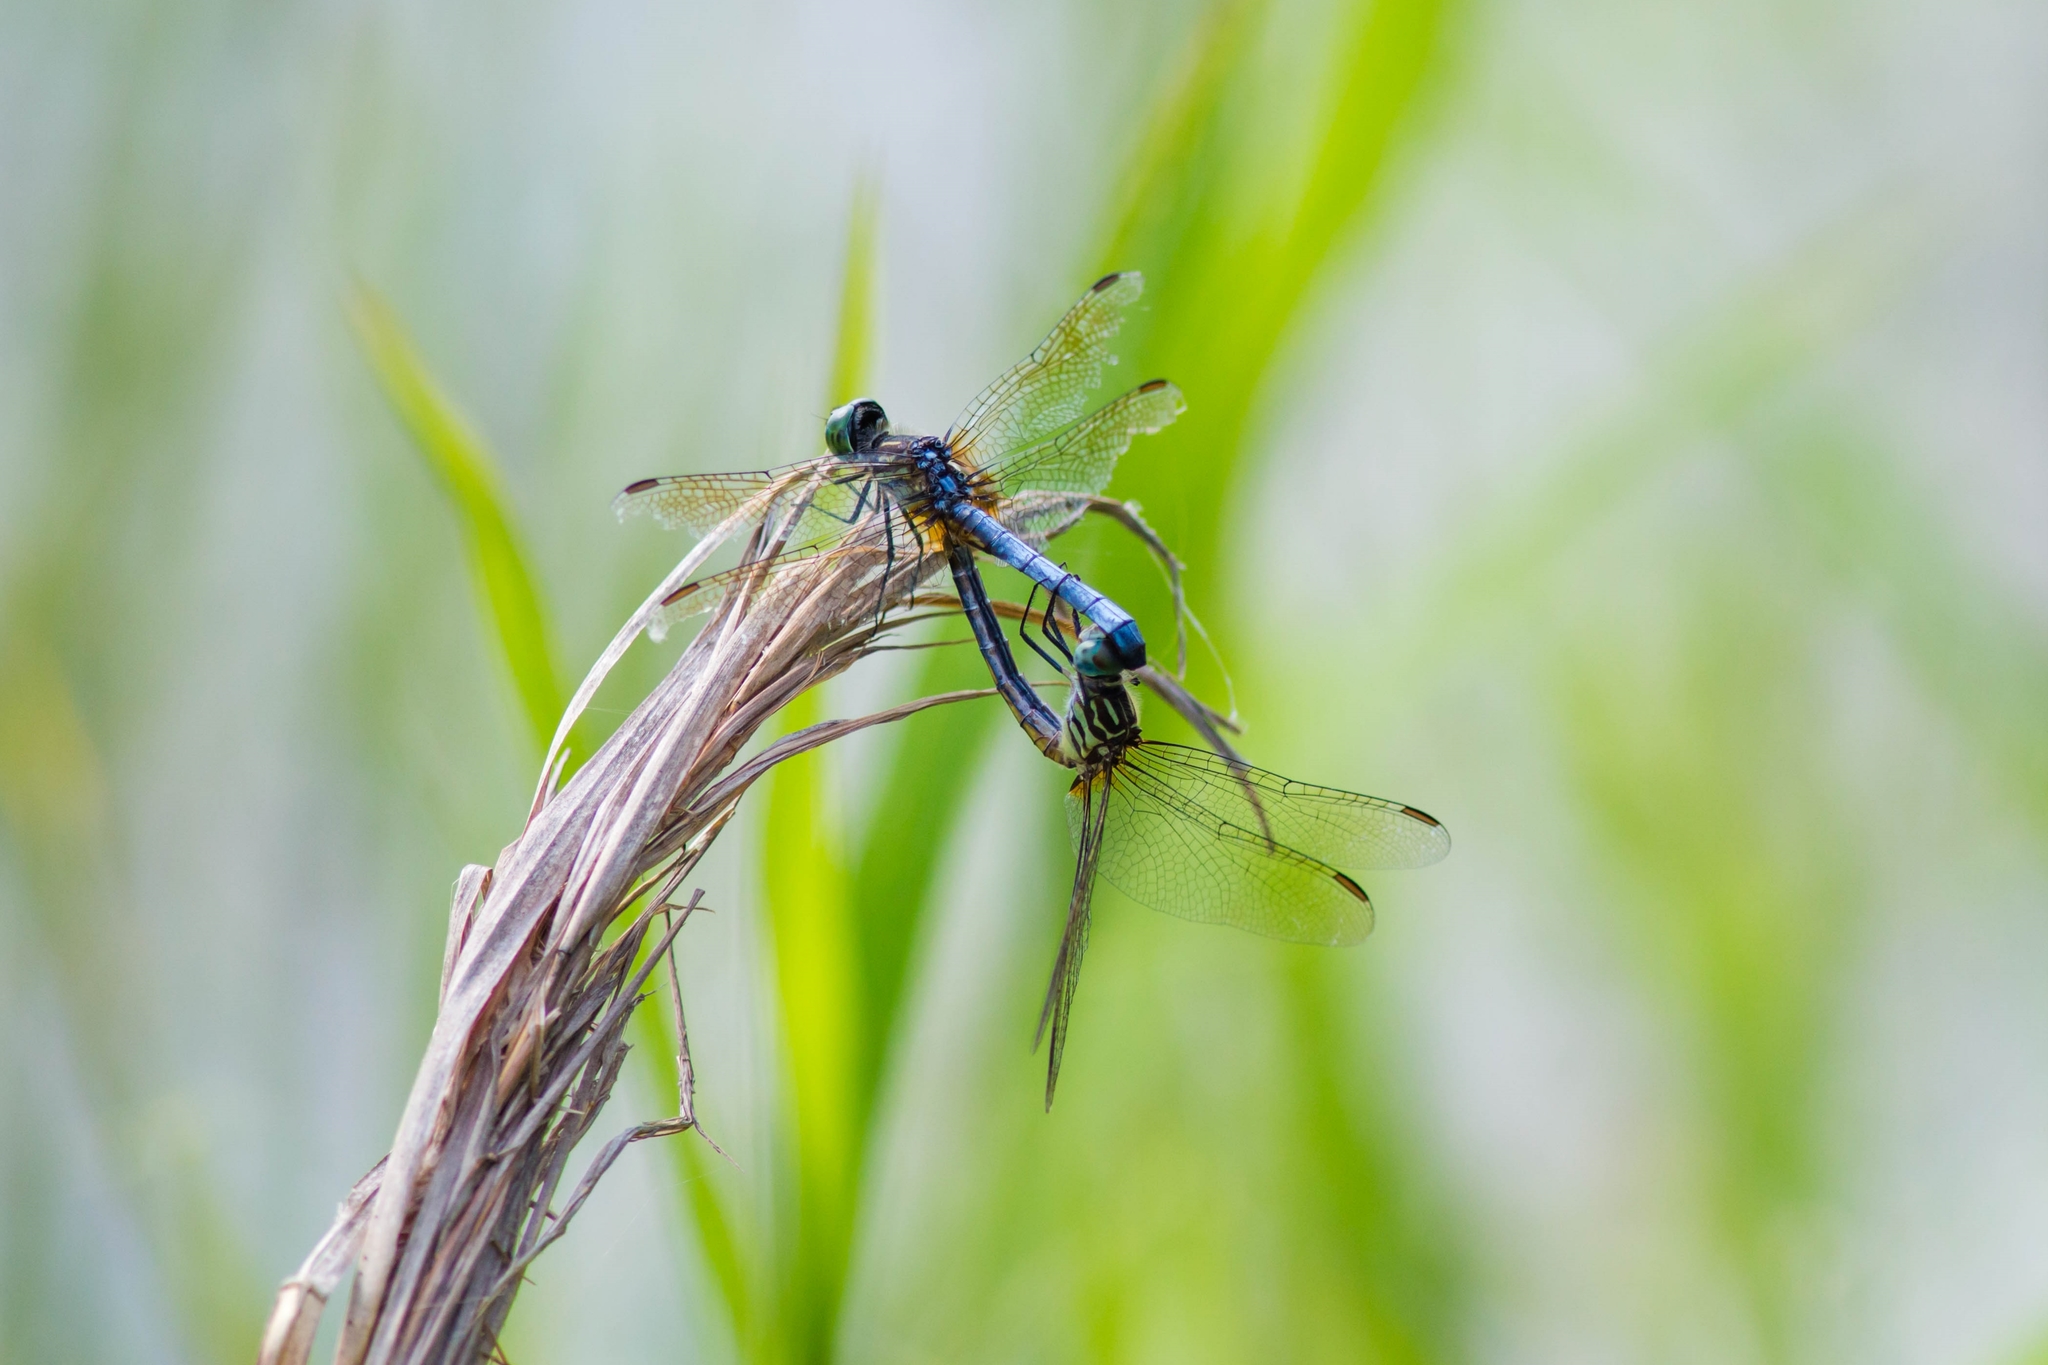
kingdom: Animalia
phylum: Arthropoda
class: Insecta
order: Odonata
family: Libellulidae
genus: Pachydiplax
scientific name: Pachydiplax longipennis
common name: Blue dasher
